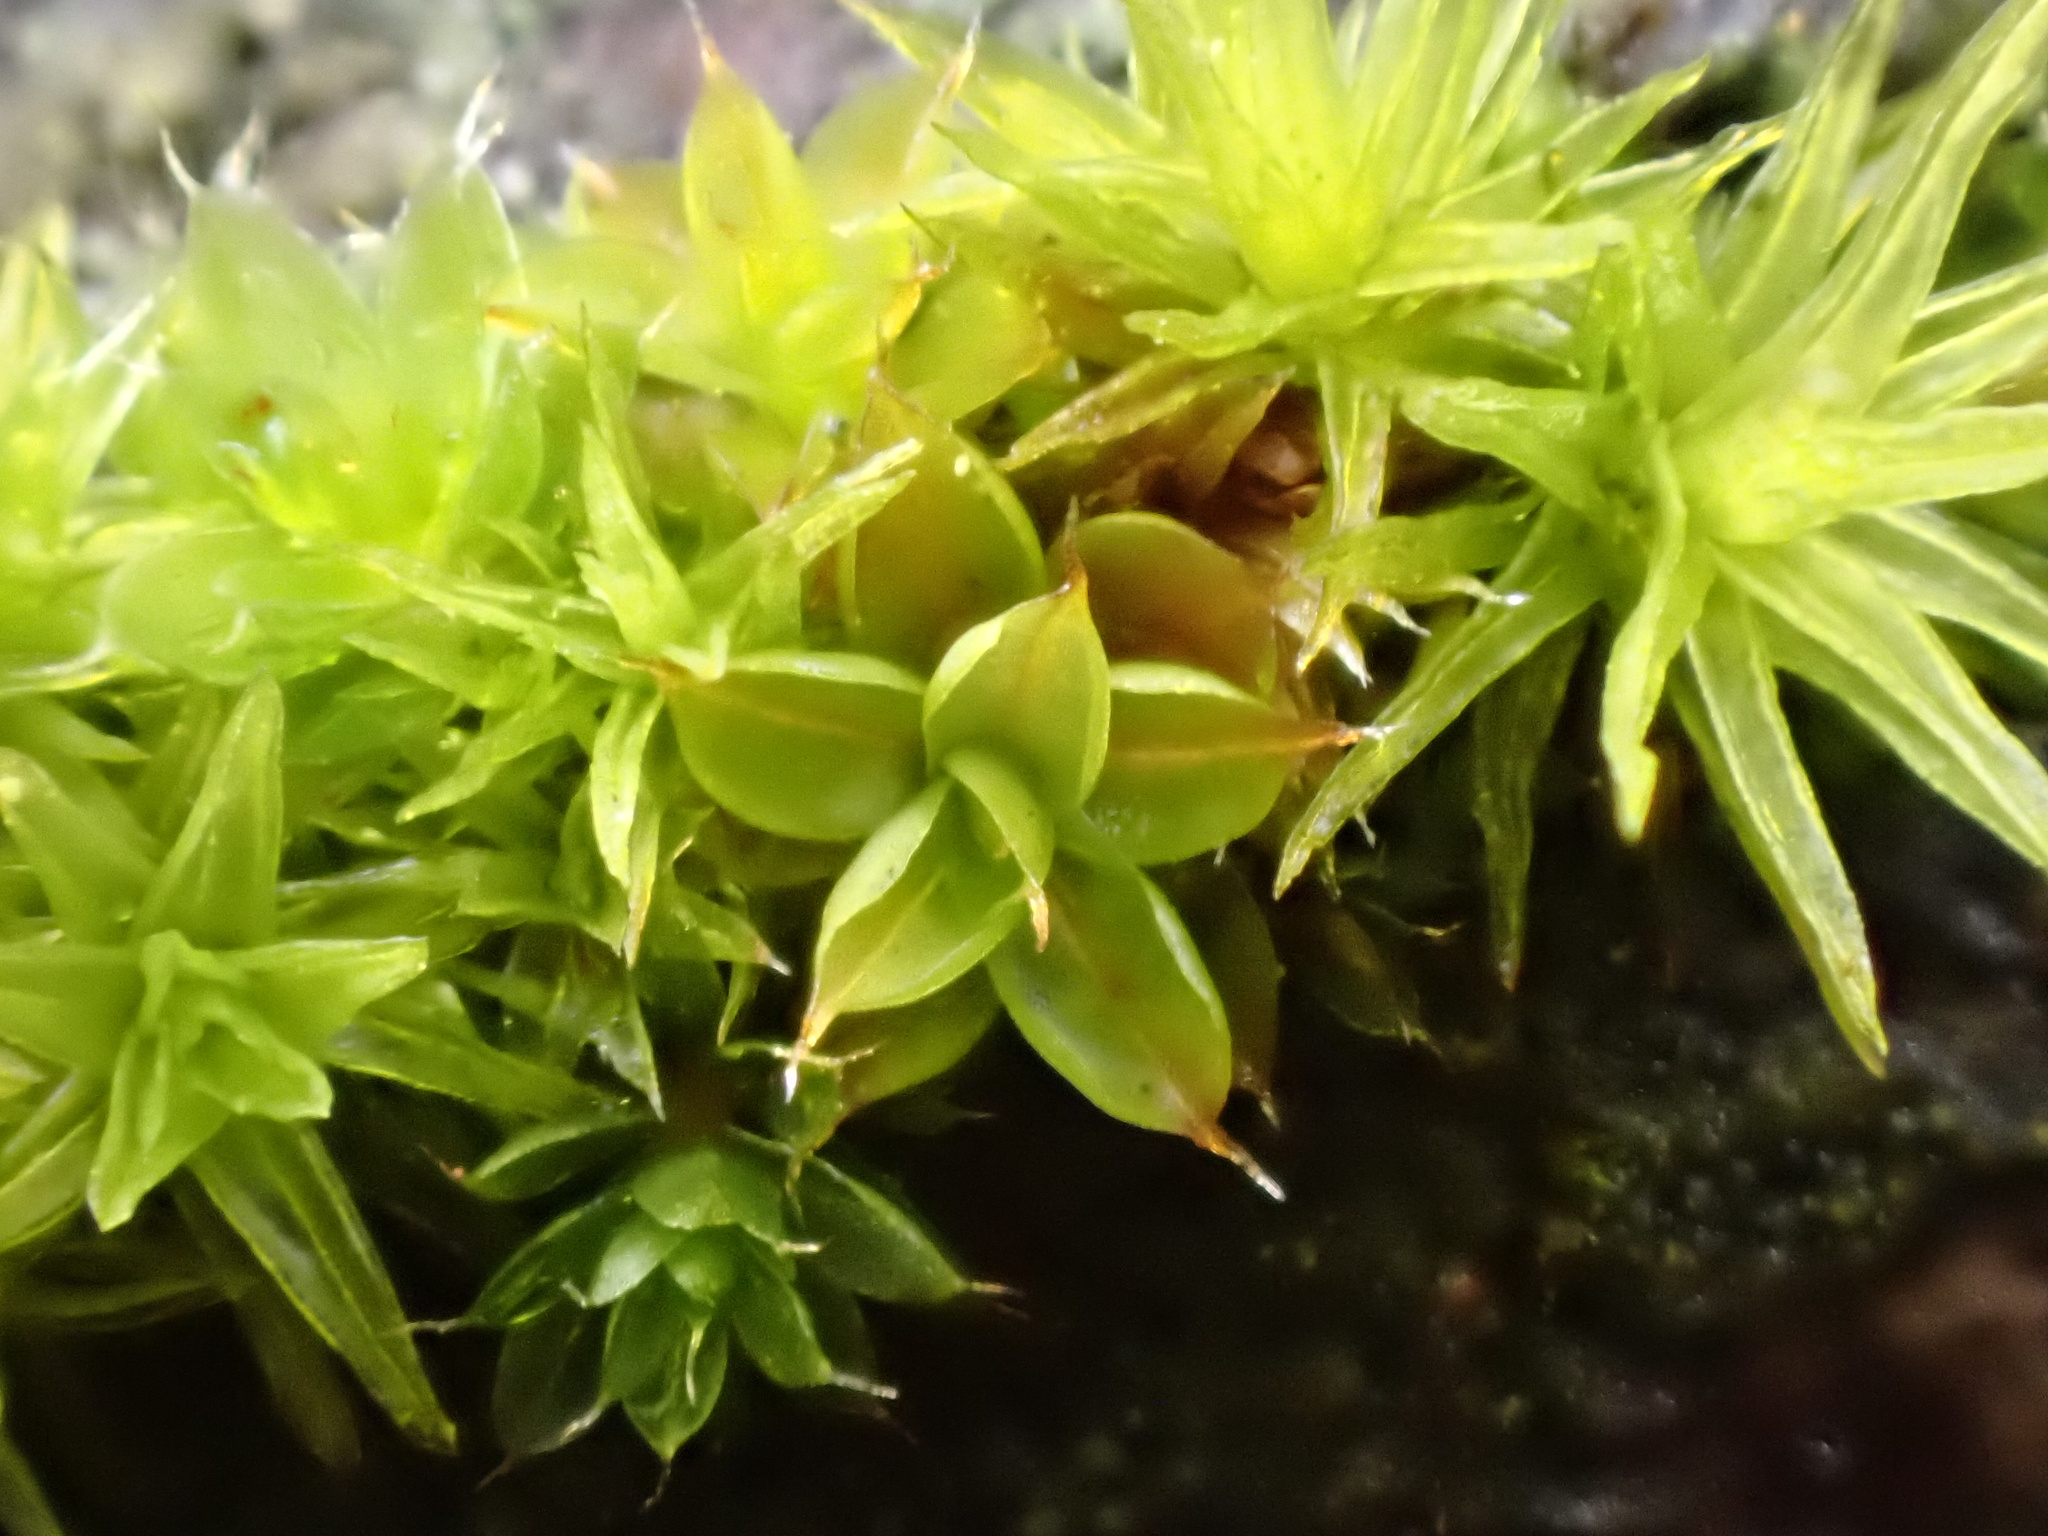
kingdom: Plantae
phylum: Bryophyta
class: Bryopsida
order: Pottiales
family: Pottiaceae
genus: Syntrichia
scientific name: Syntrichia papillosa
